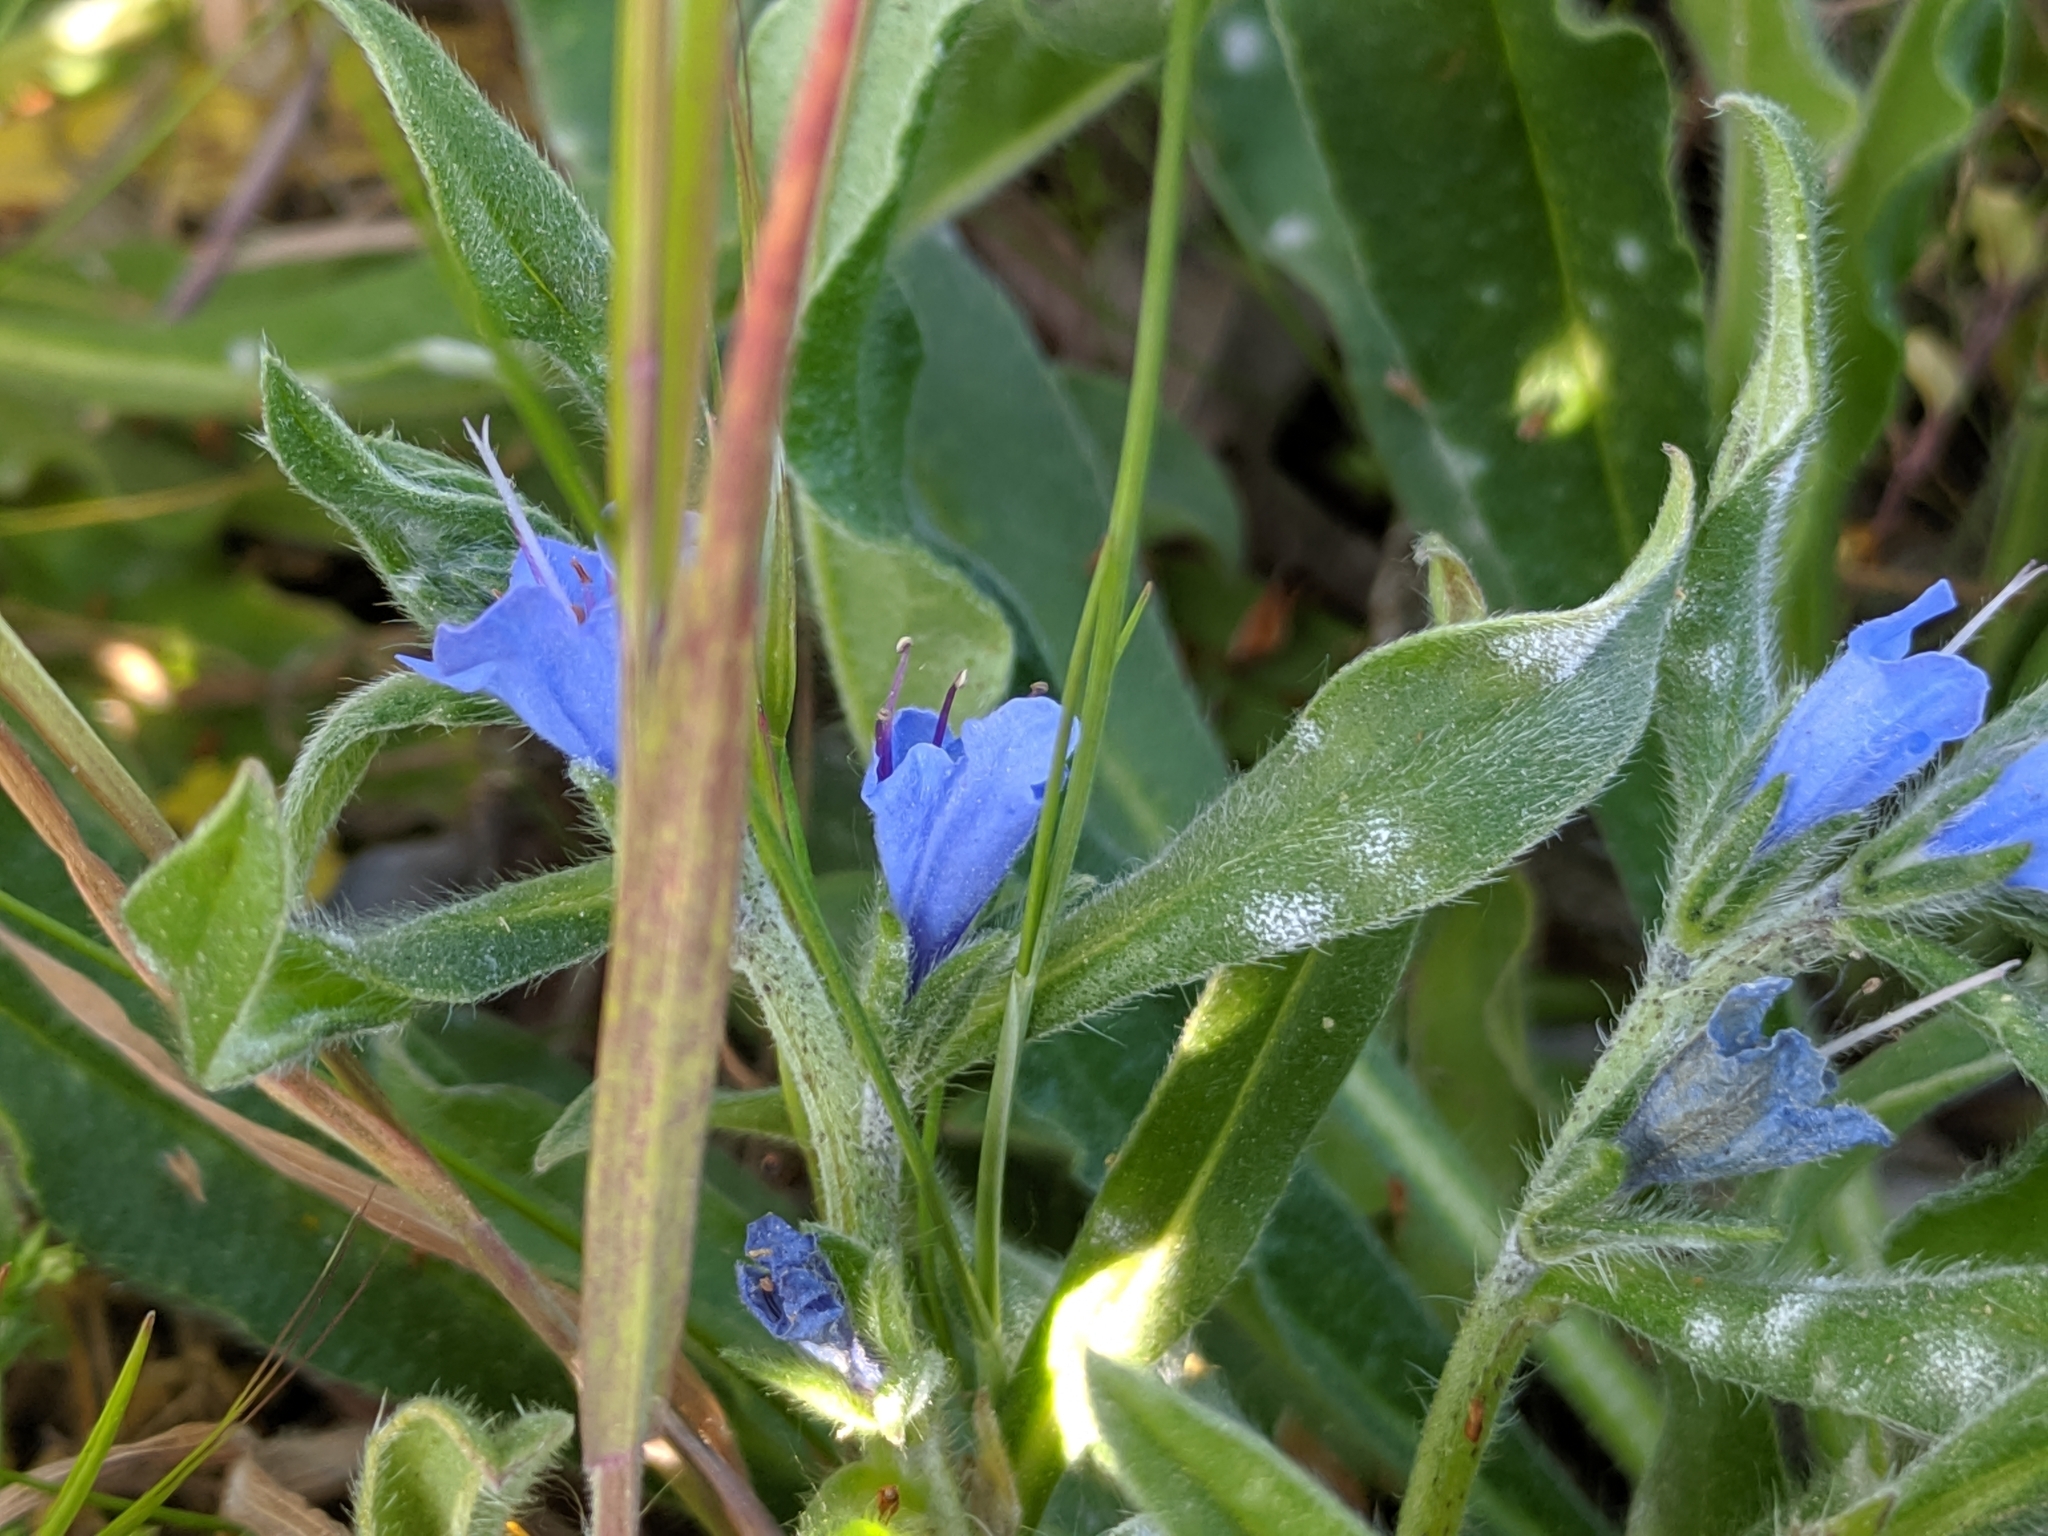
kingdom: Plantae
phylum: Tracheophyta
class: Magnoliopsida
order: Boraginales
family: Boraginaceae
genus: Echium
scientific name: Echium vulgare
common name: Common viper's bugloss
